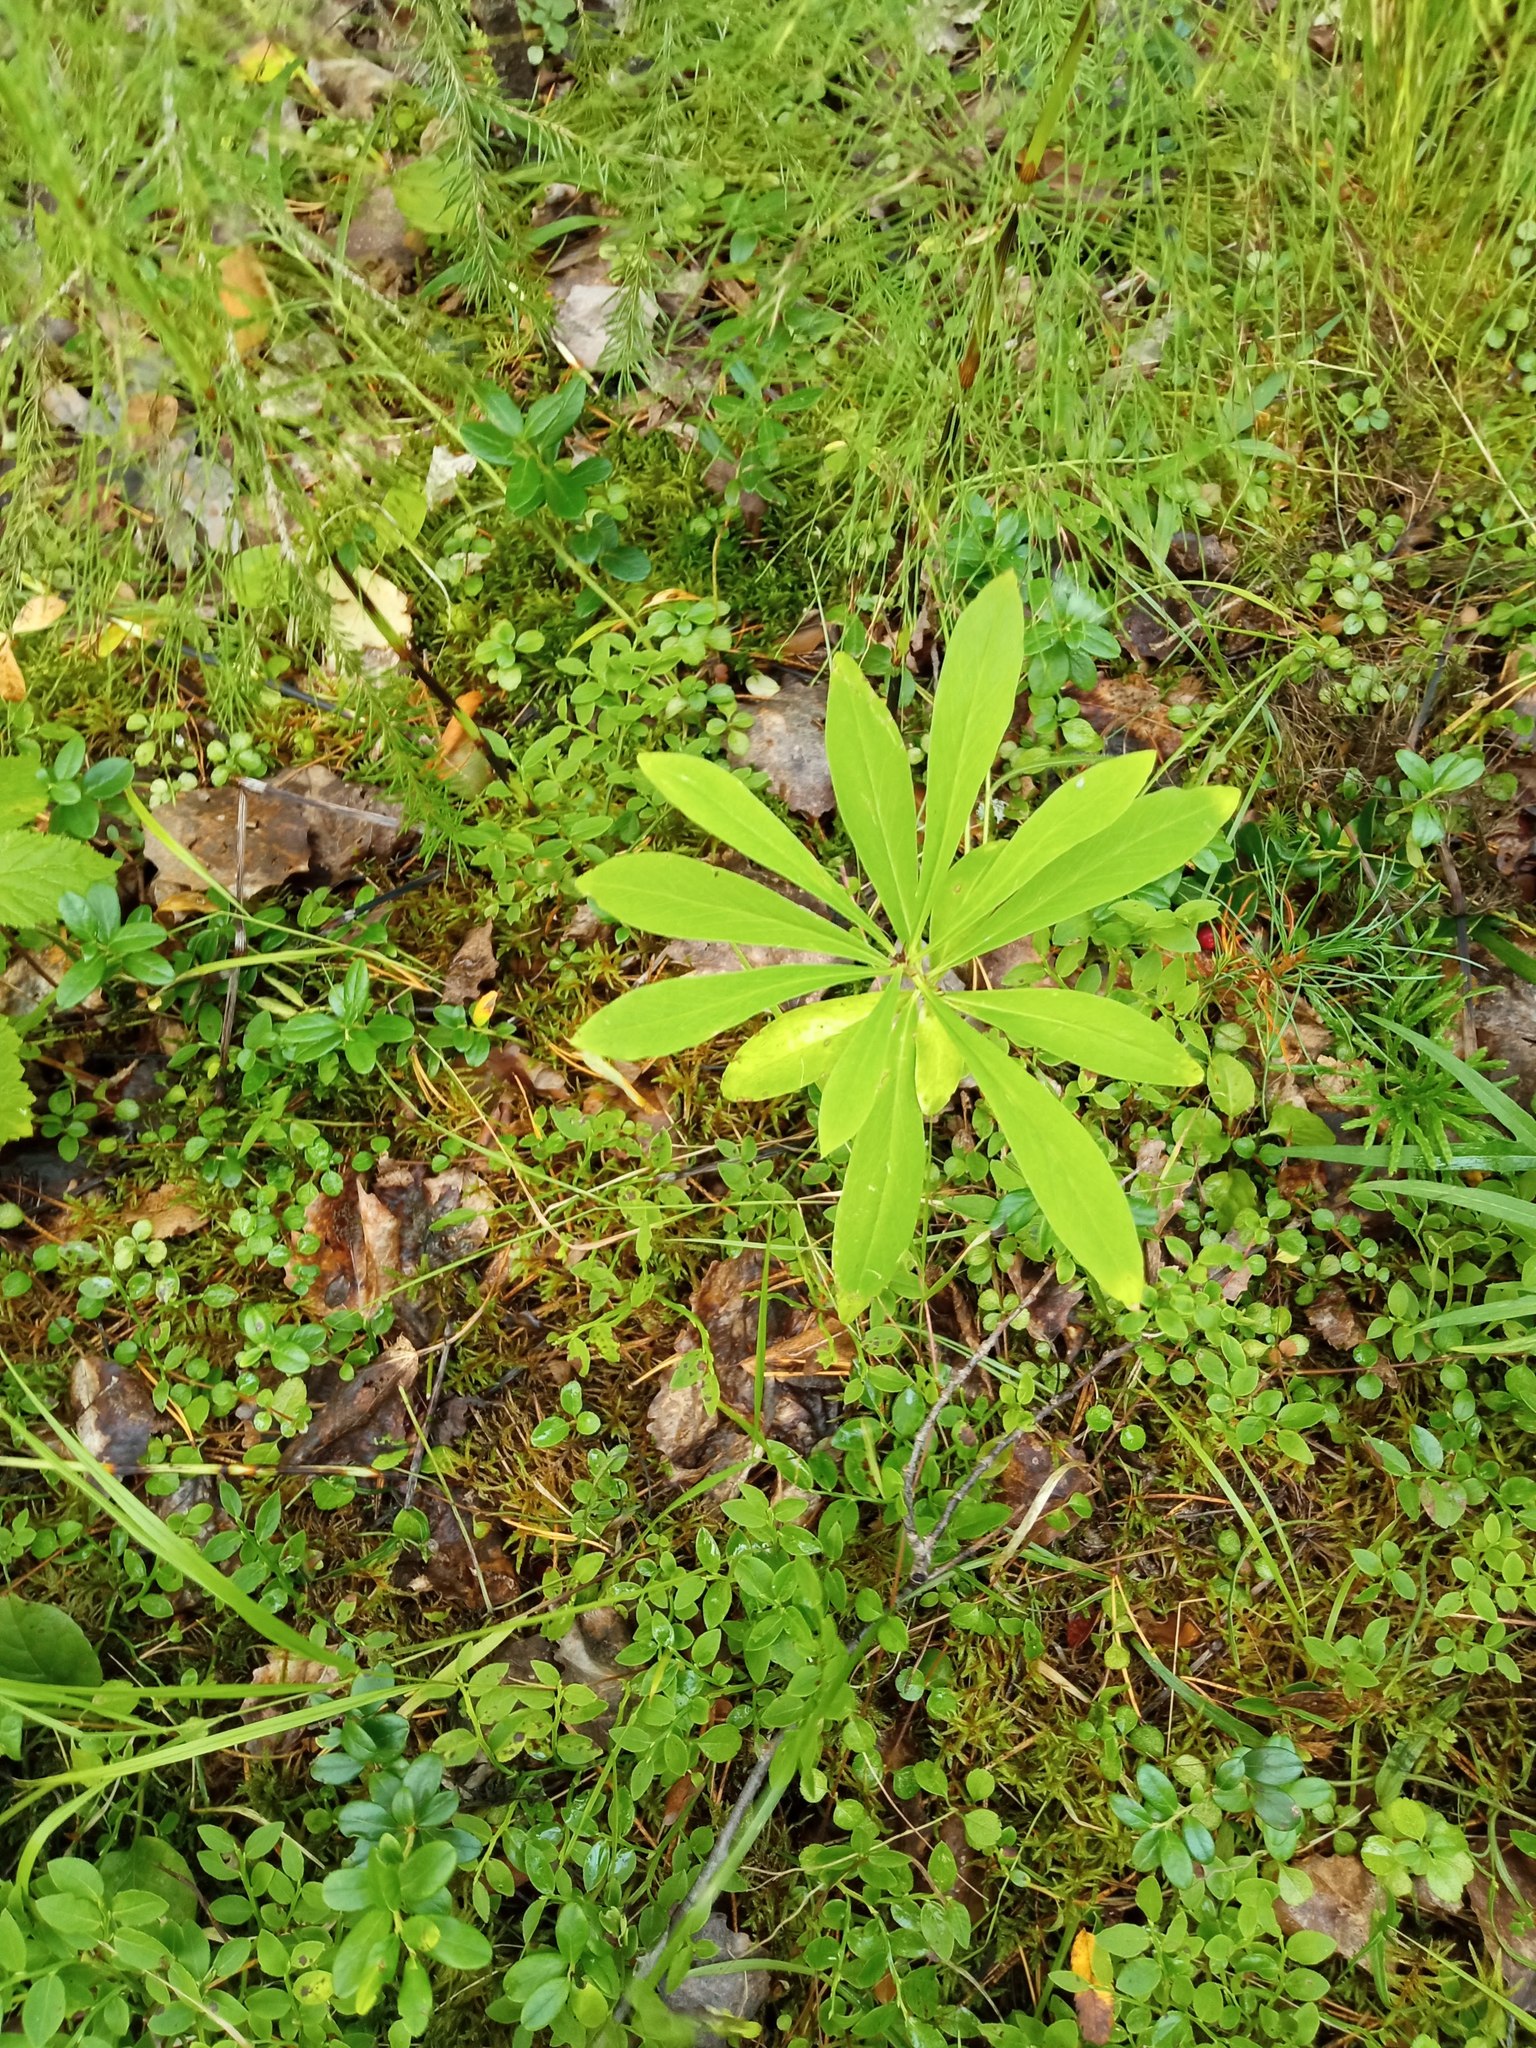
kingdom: Plantae
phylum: Tracheophyta
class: Magnoliopsida
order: Malvales
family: Thymelaeaceae
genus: Daphne
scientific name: Daphne mezereum
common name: Mezereon
